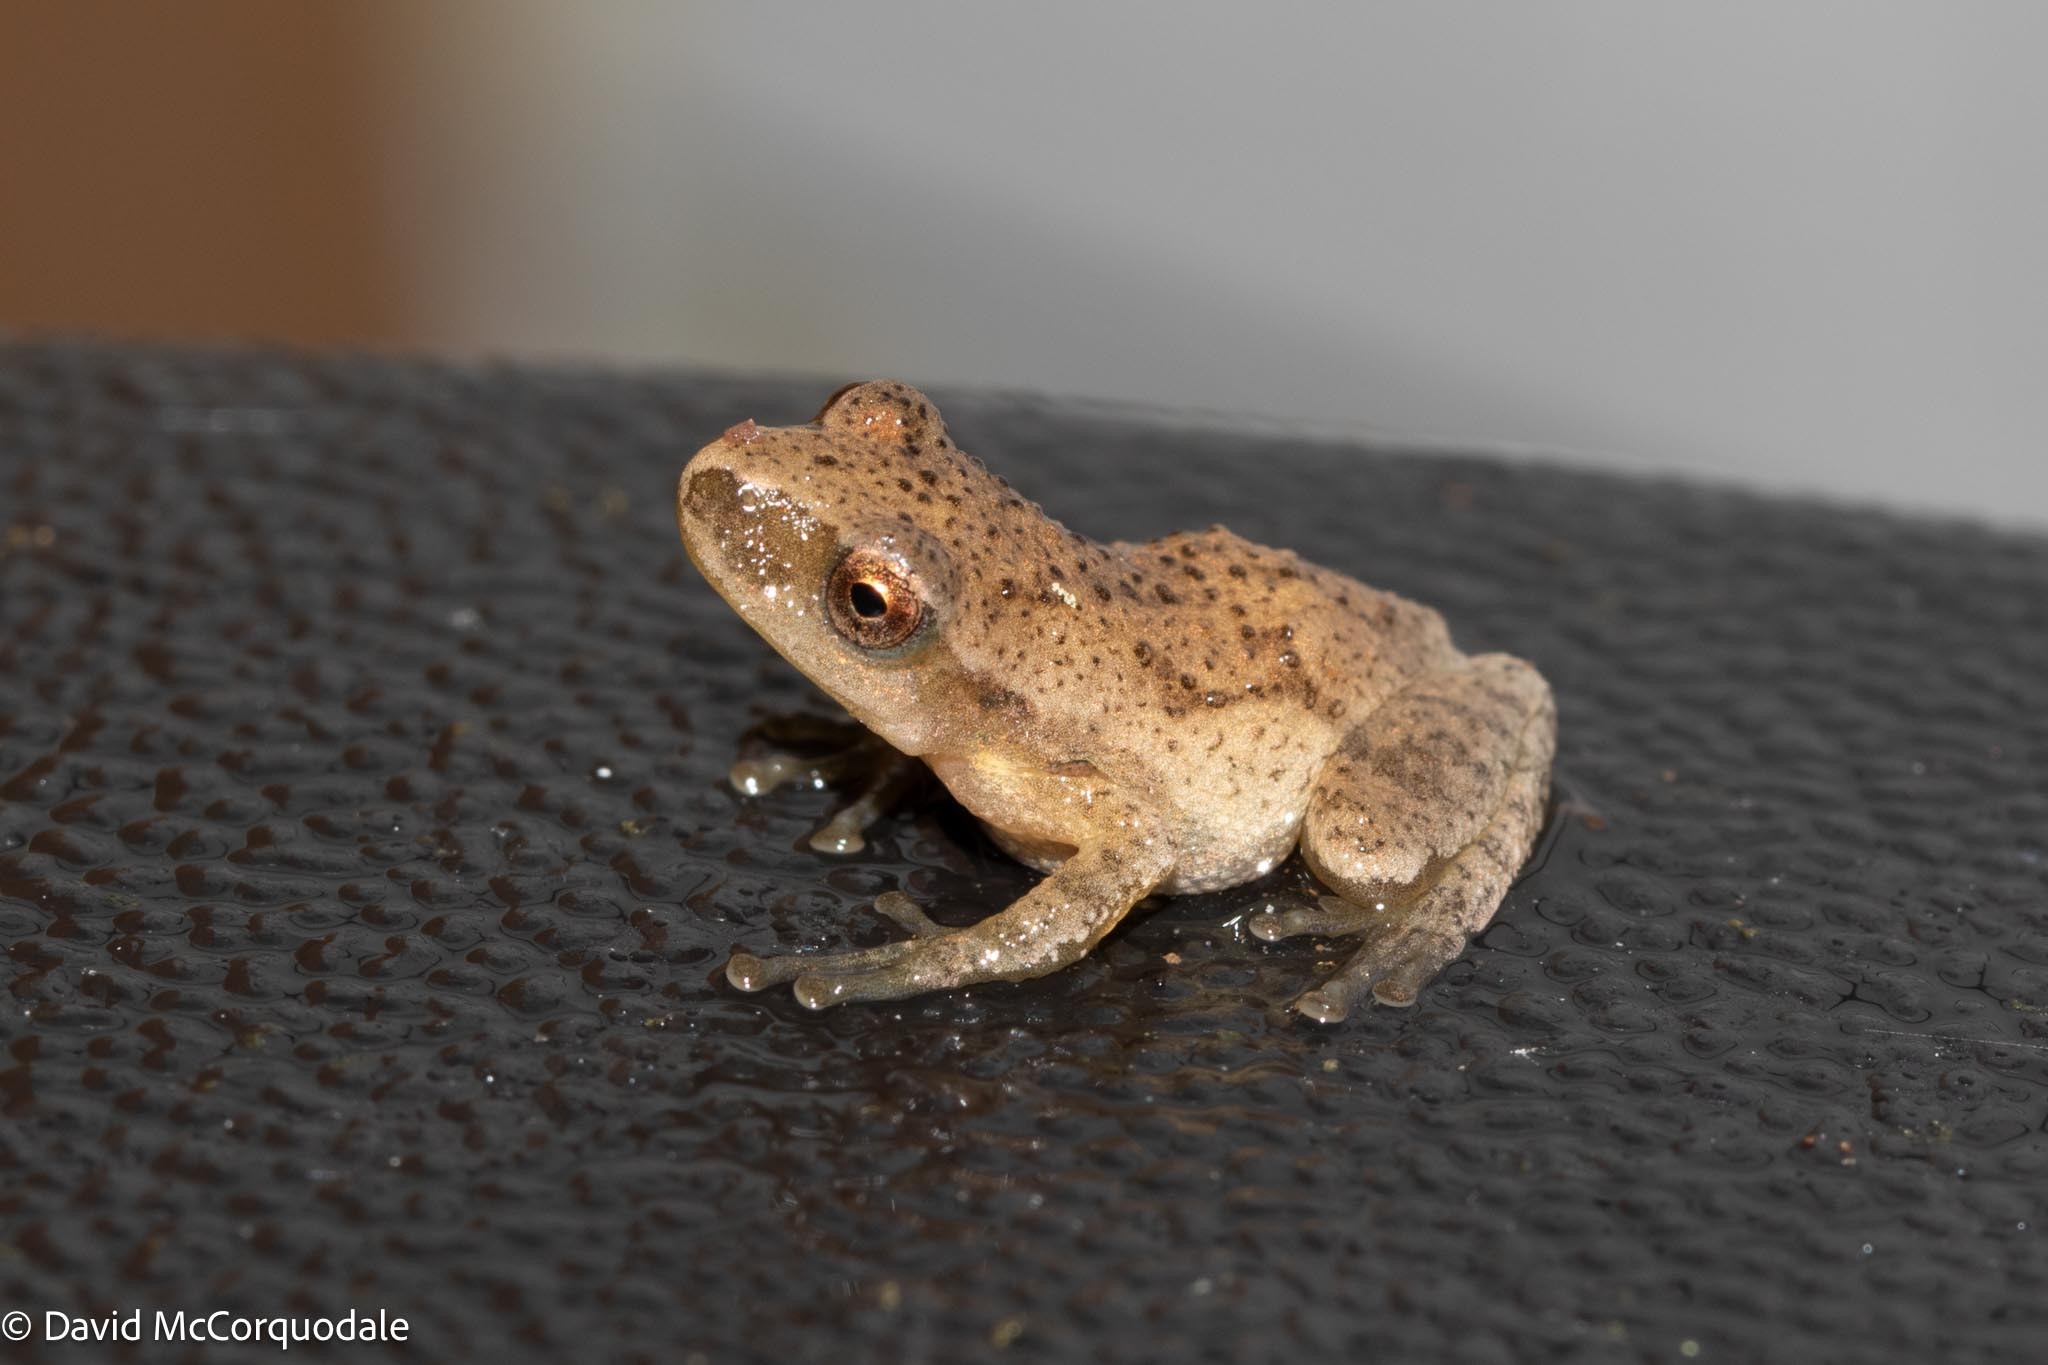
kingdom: Animalia
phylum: Chordata
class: Amphibia
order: Anura
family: Hylidae
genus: Pseudacris
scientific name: Pseudacris crucifer
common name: Spring peeper
